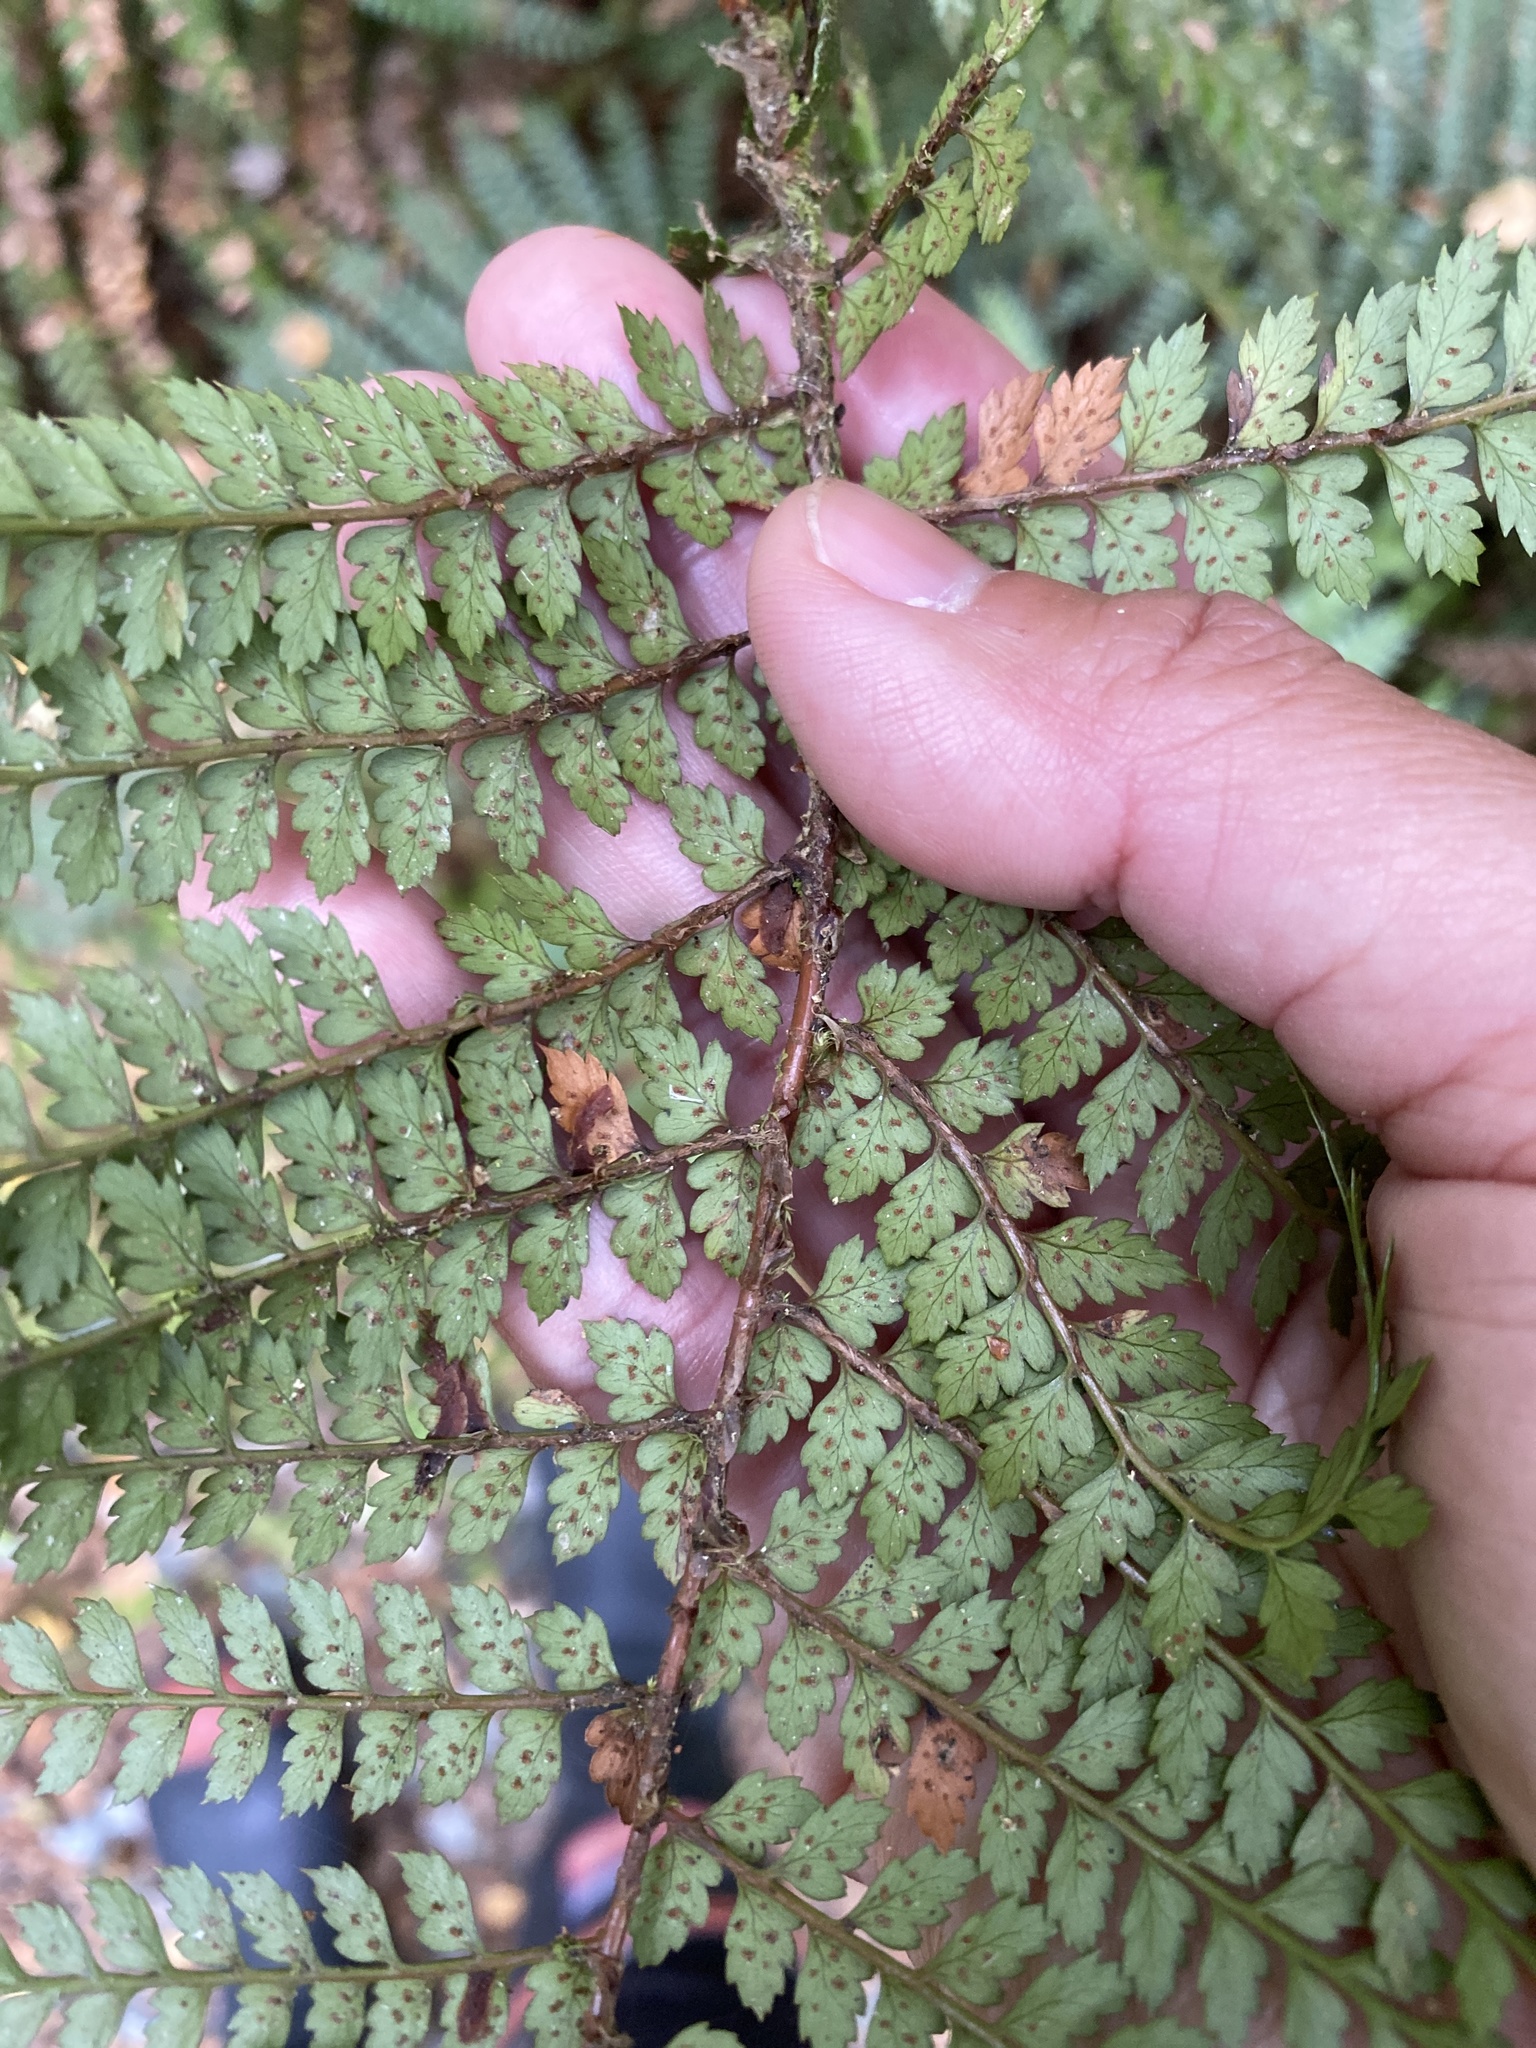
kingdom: Plantae
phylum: Tracheophyta
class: Polypodiopsida
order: Polypodiales
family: Dryopteridaceae
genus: Polystichum
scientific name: Polystichum vestitum
